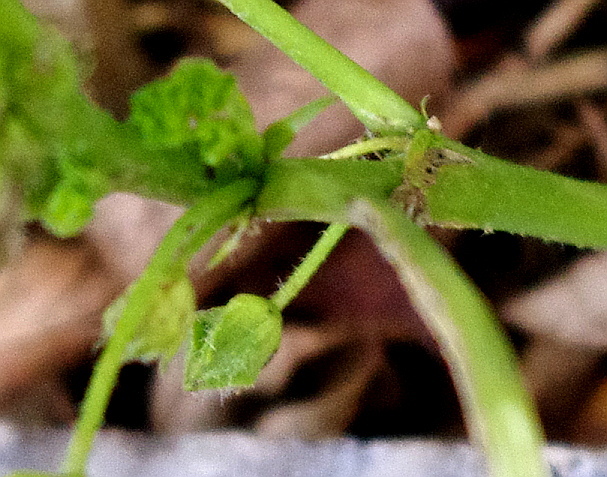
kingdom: Plantae
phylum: Tracheophyta
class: Magnoliopsida
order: Malvales
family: Malvaceae
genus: Malva
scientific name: Malva pusilla
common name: Small mallow
